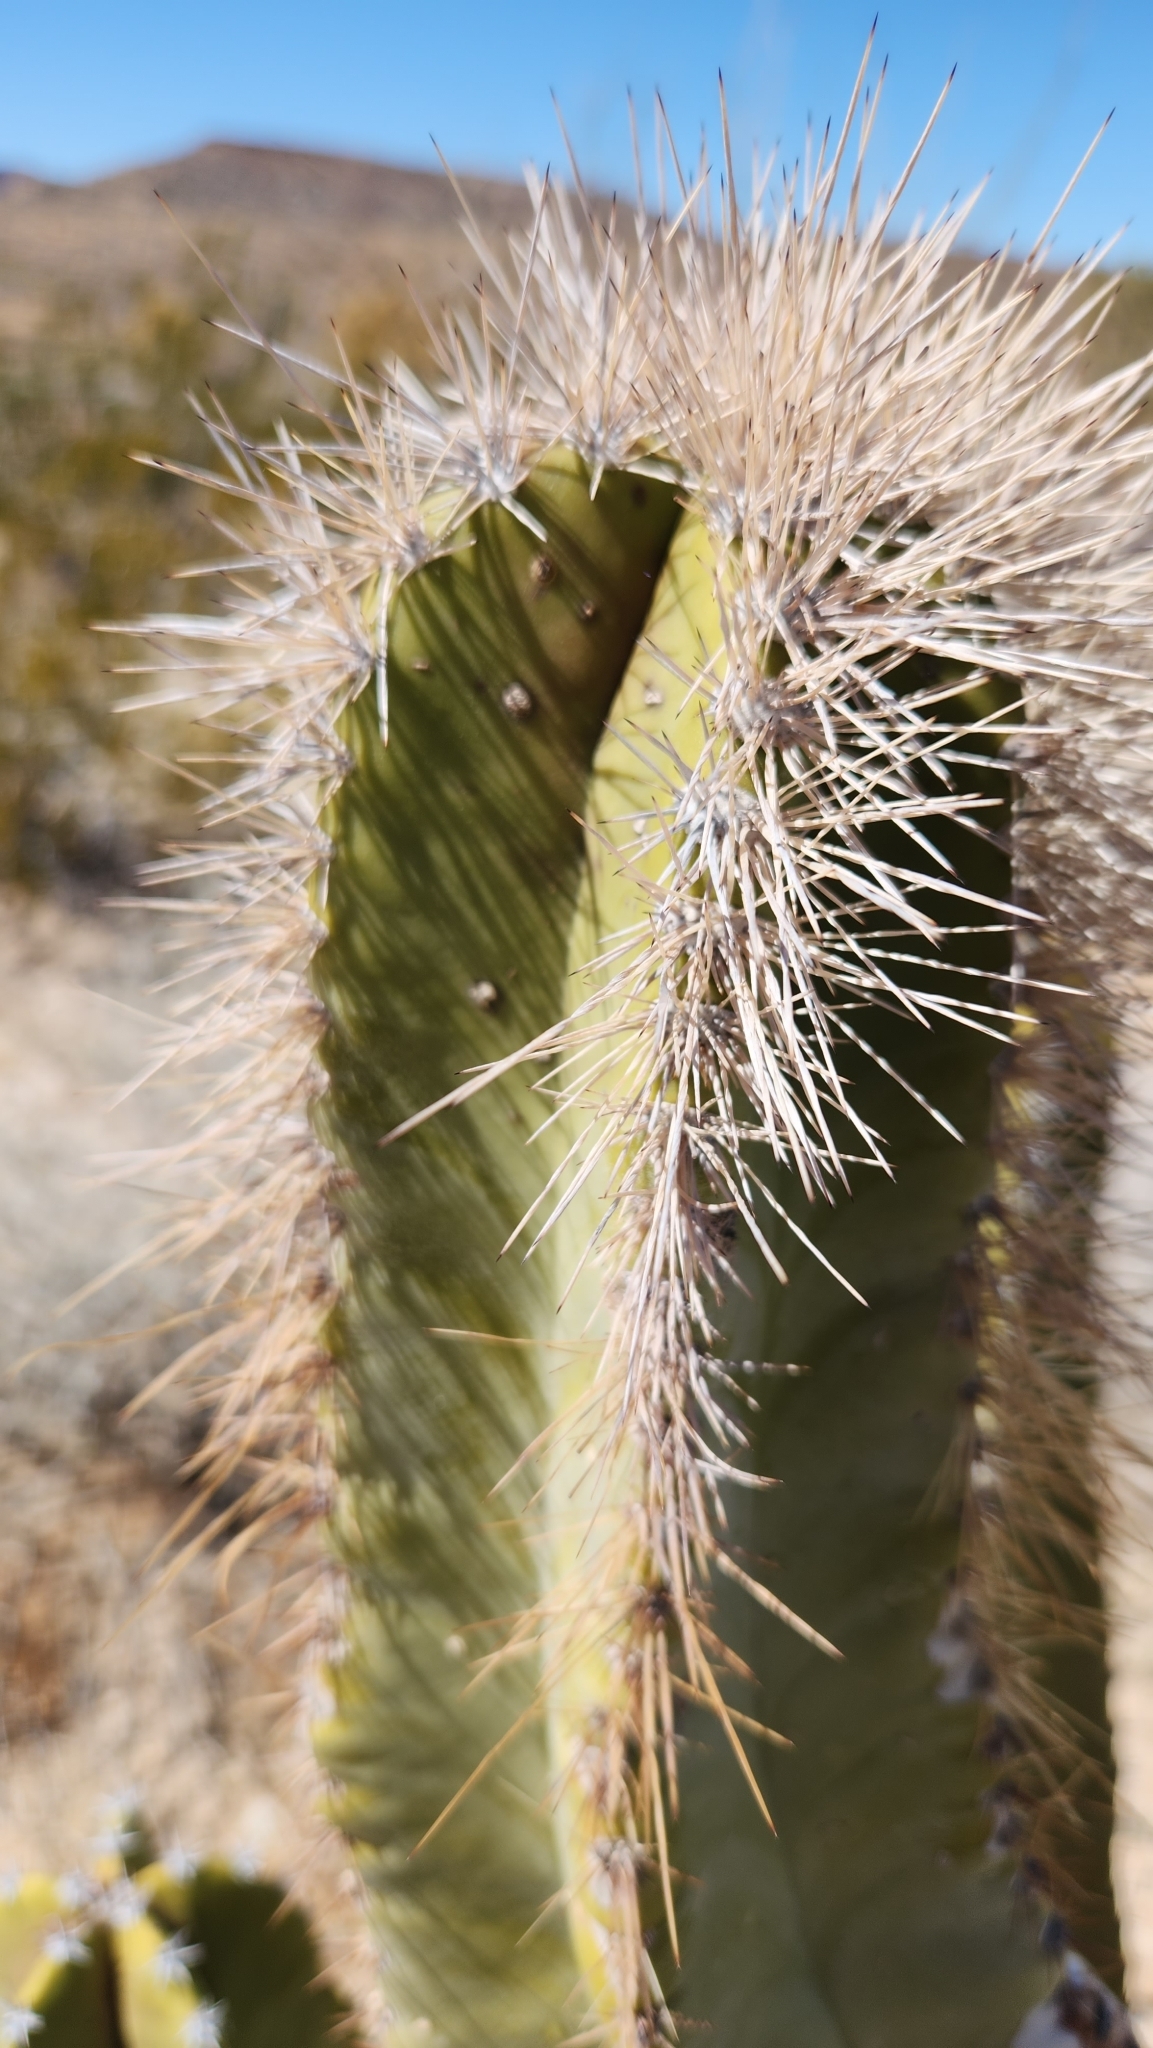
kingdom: Plantae
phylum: Tracheophyta
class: Magnoliopsida
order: Caryophyllales
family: Cactaceae
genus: Pachycereus
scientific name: Pachycereus schottii
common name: Senita cactus
